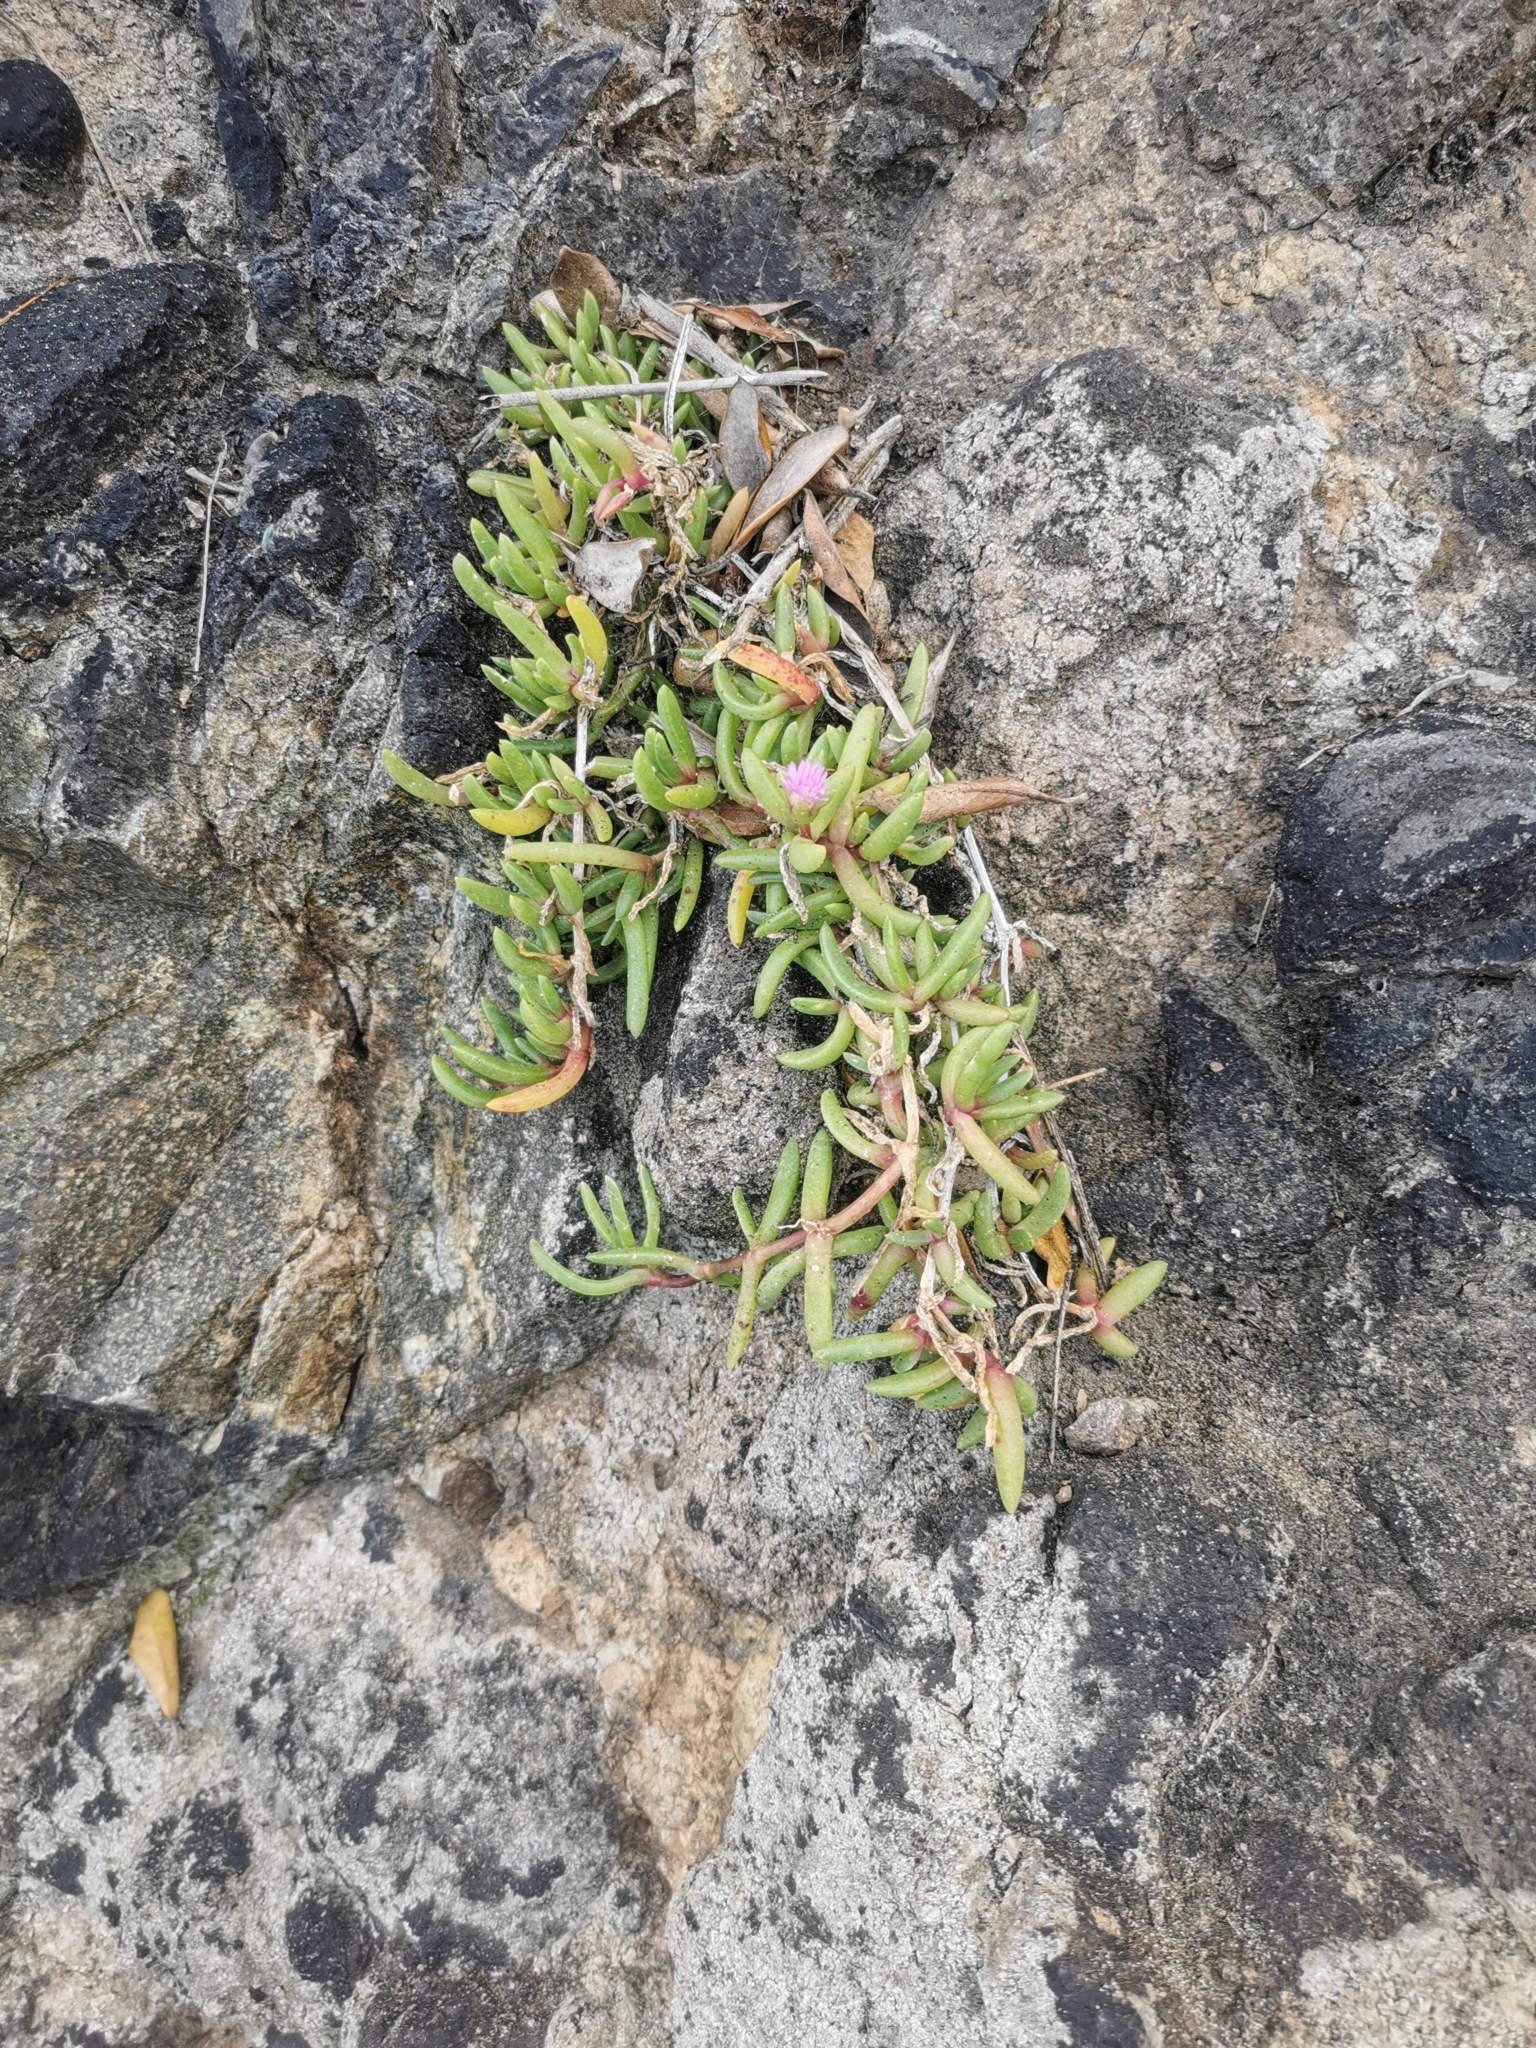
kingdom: Plantae
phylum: Tracheophyta
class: Magnoliopsida
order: Caryophyllales
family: Aizoaceae
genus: Disphyma
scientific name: Disphyma australe
